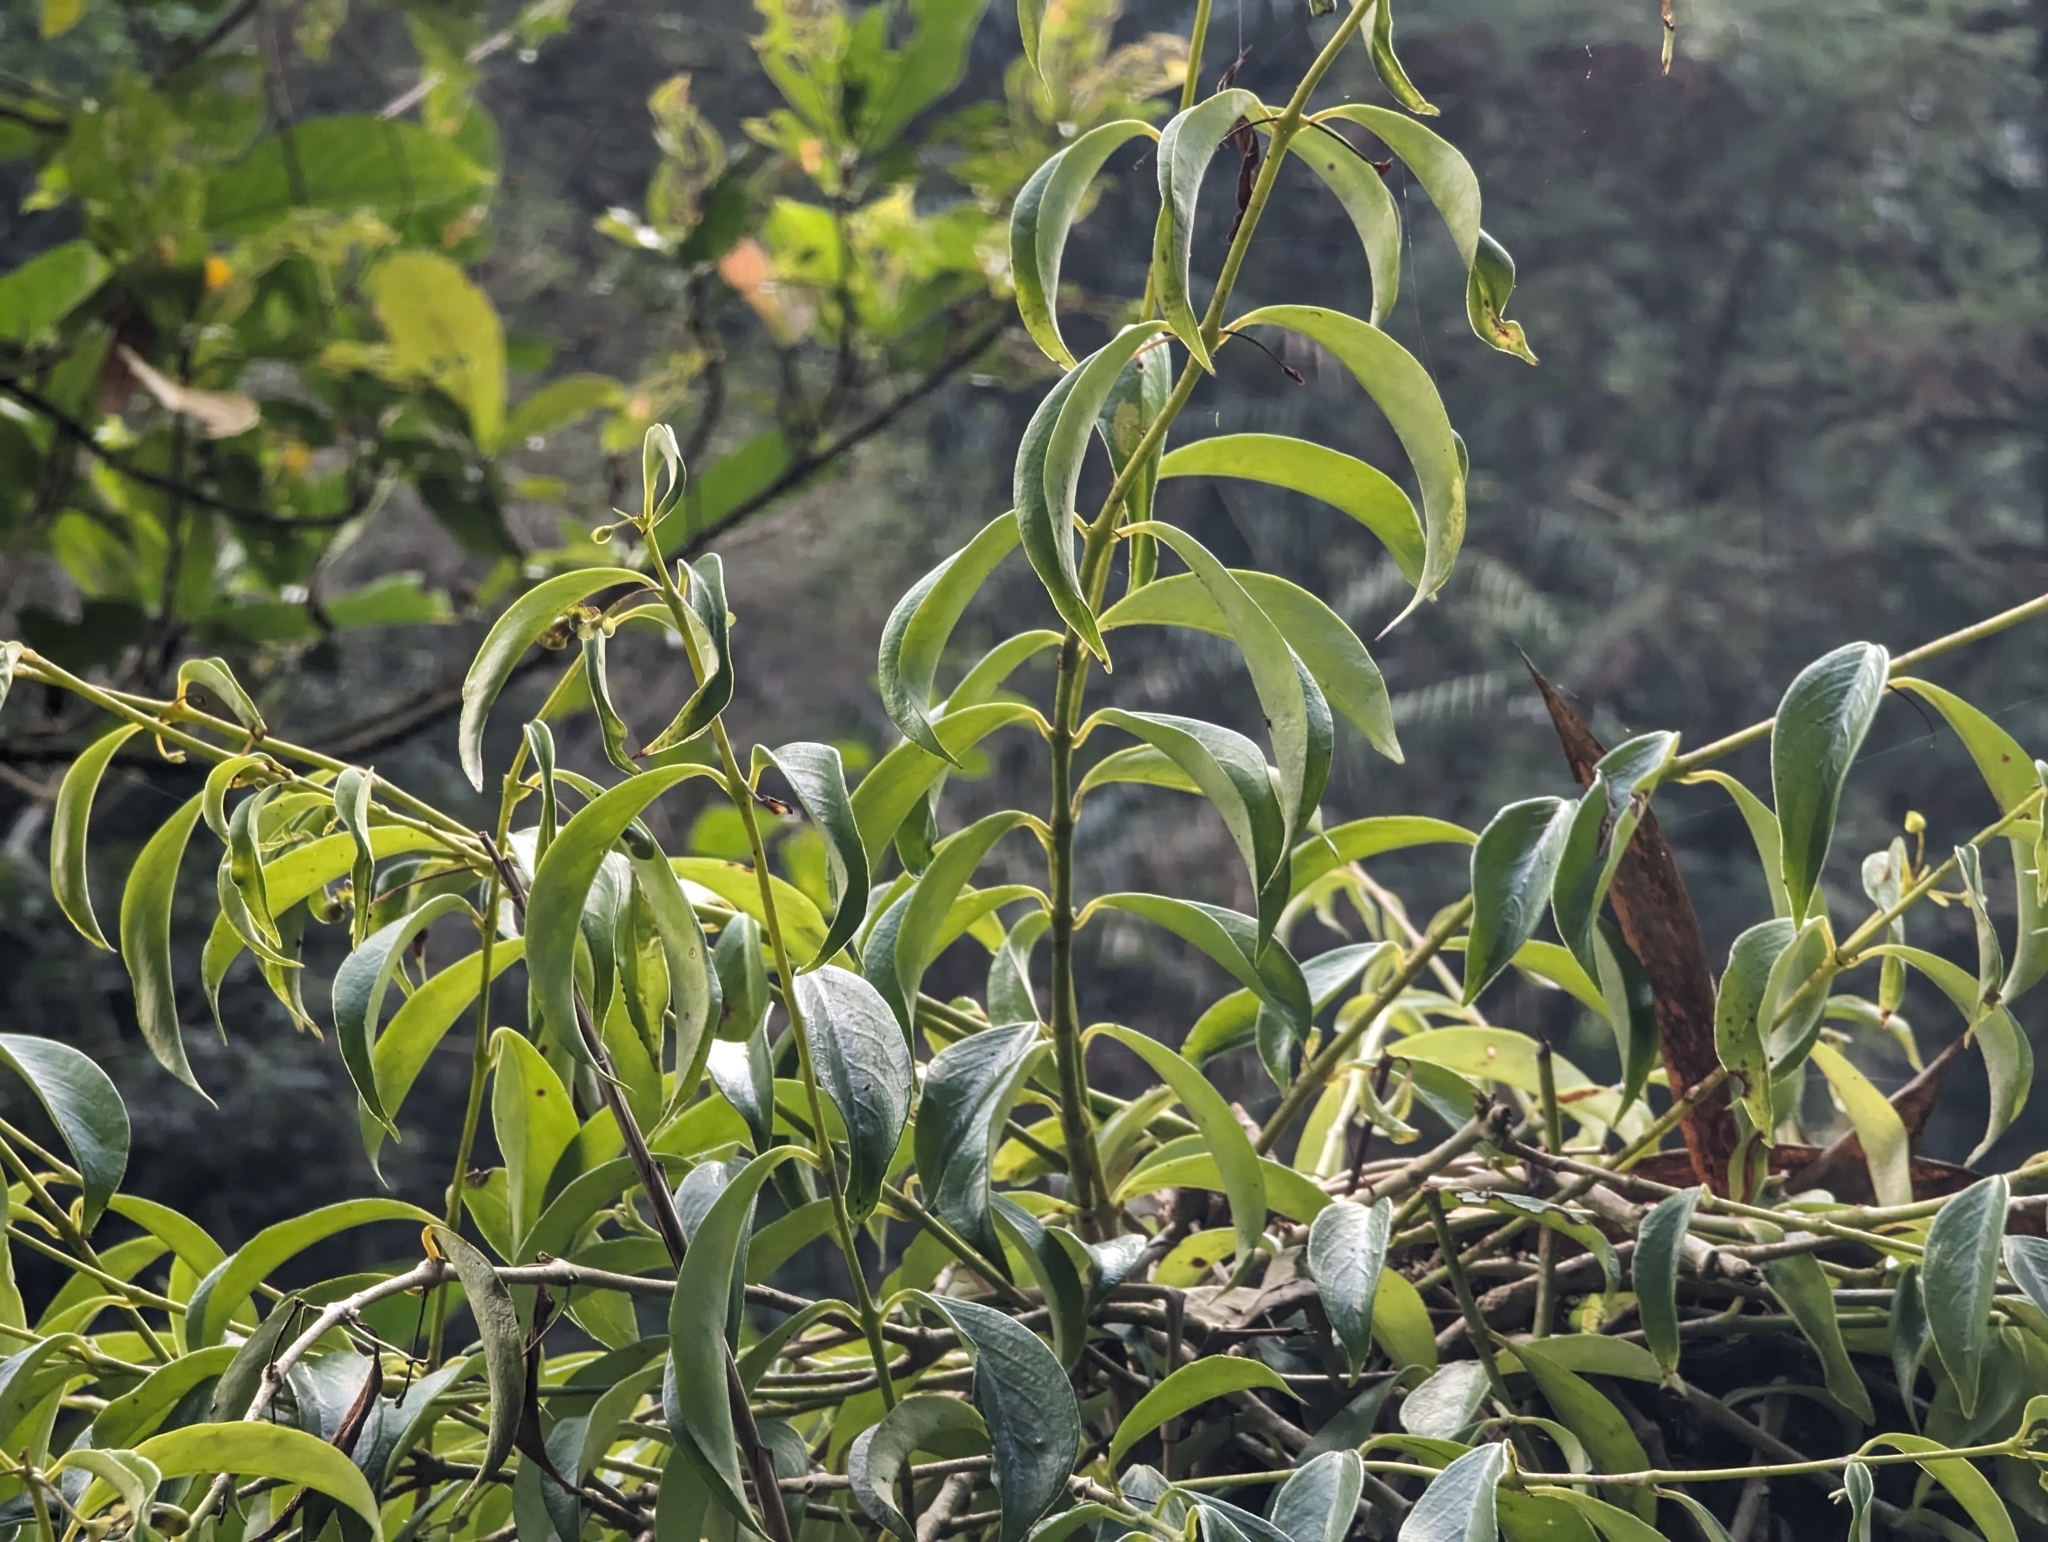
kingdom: Plantae
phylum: Tracheophyta
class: Magnoliopsida
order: Lamiales
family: Gesneriaceae
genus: Aeschynanthus
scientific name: Aeschynanthus acuminatus
